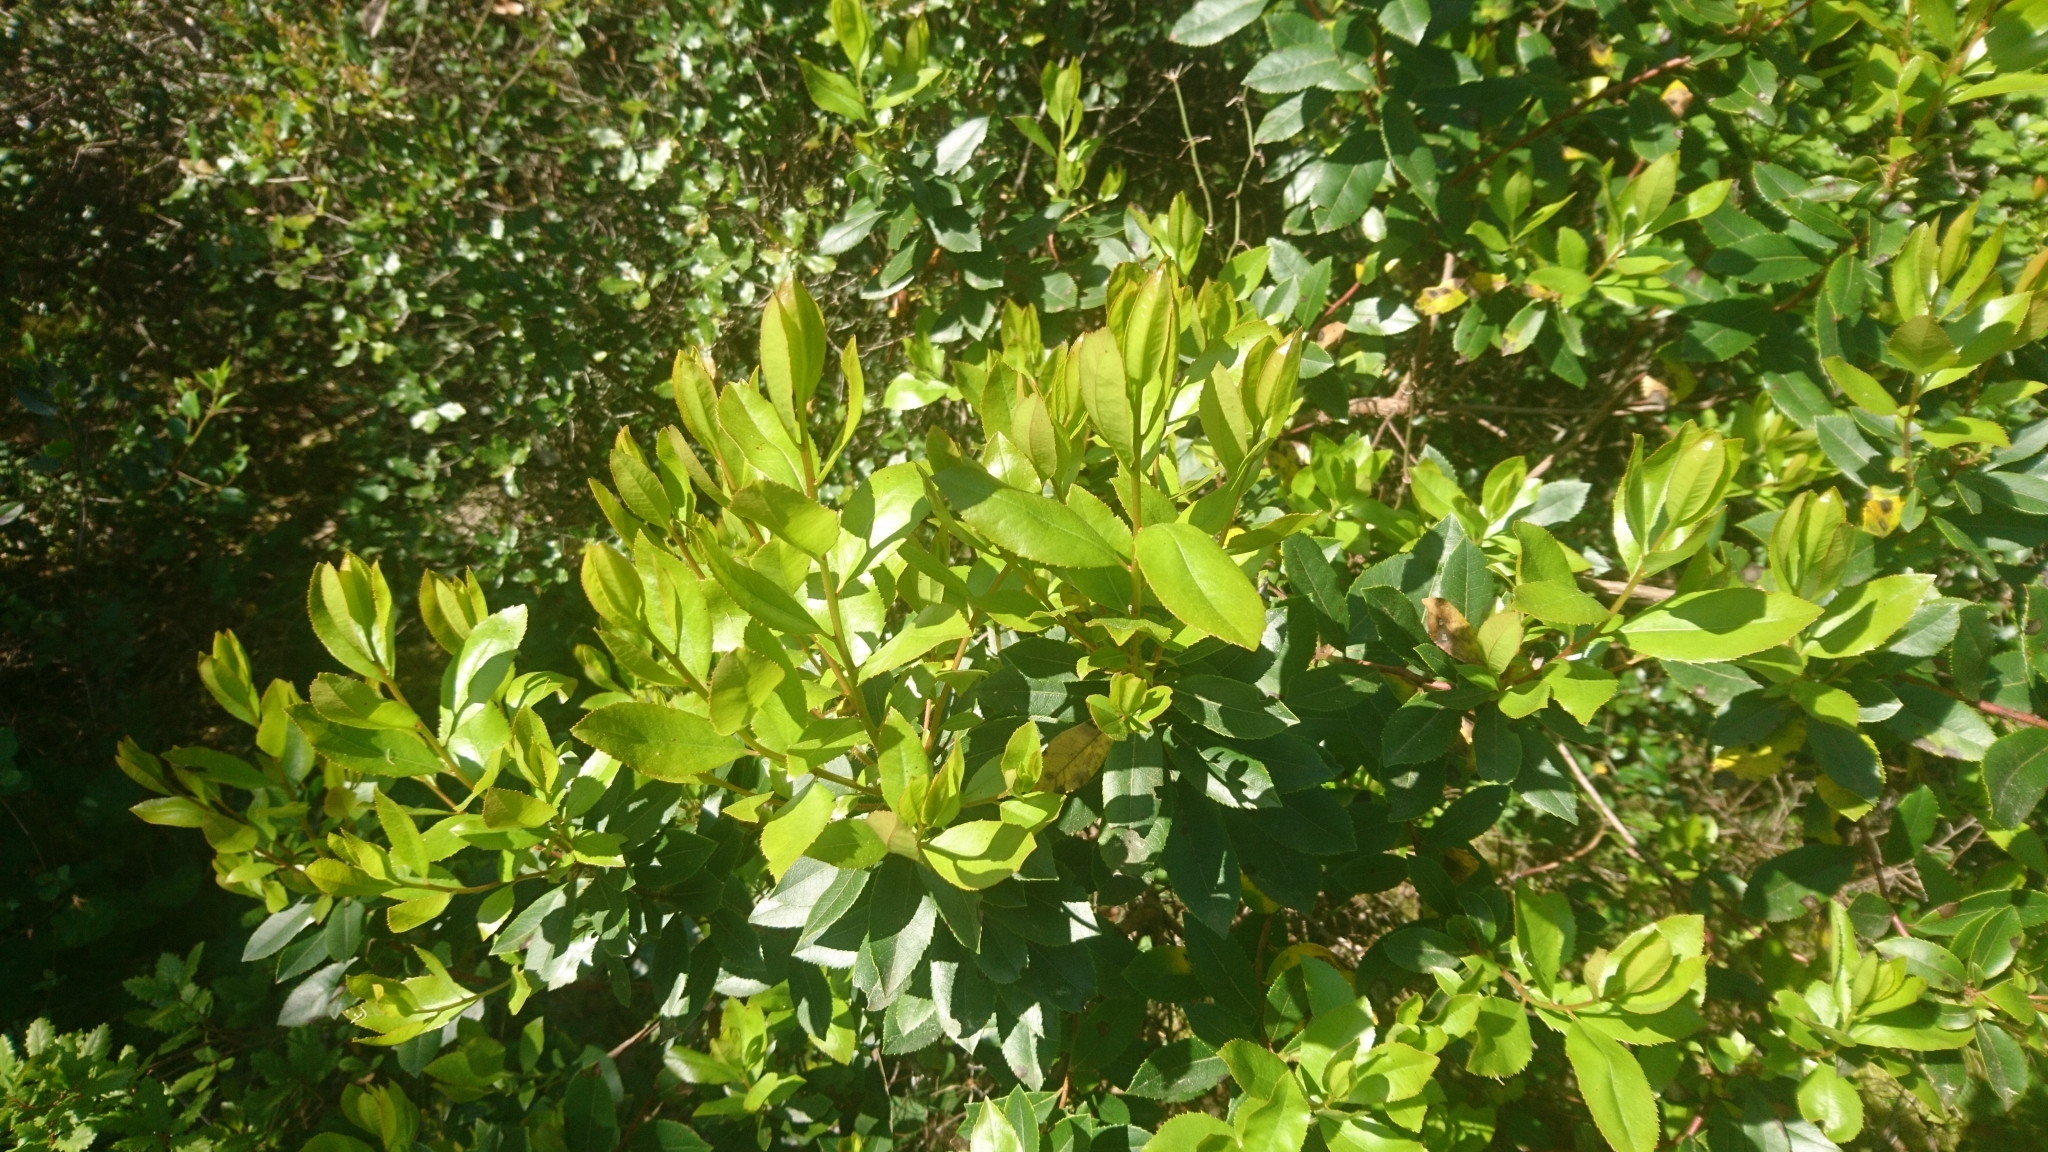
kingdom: Plantae
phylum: Tracheophyta
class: Magnoliopsida
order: Ericales
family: Ericaceae
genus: Arbutus
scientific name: Arbutus unedo
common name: Strawberry-tree
